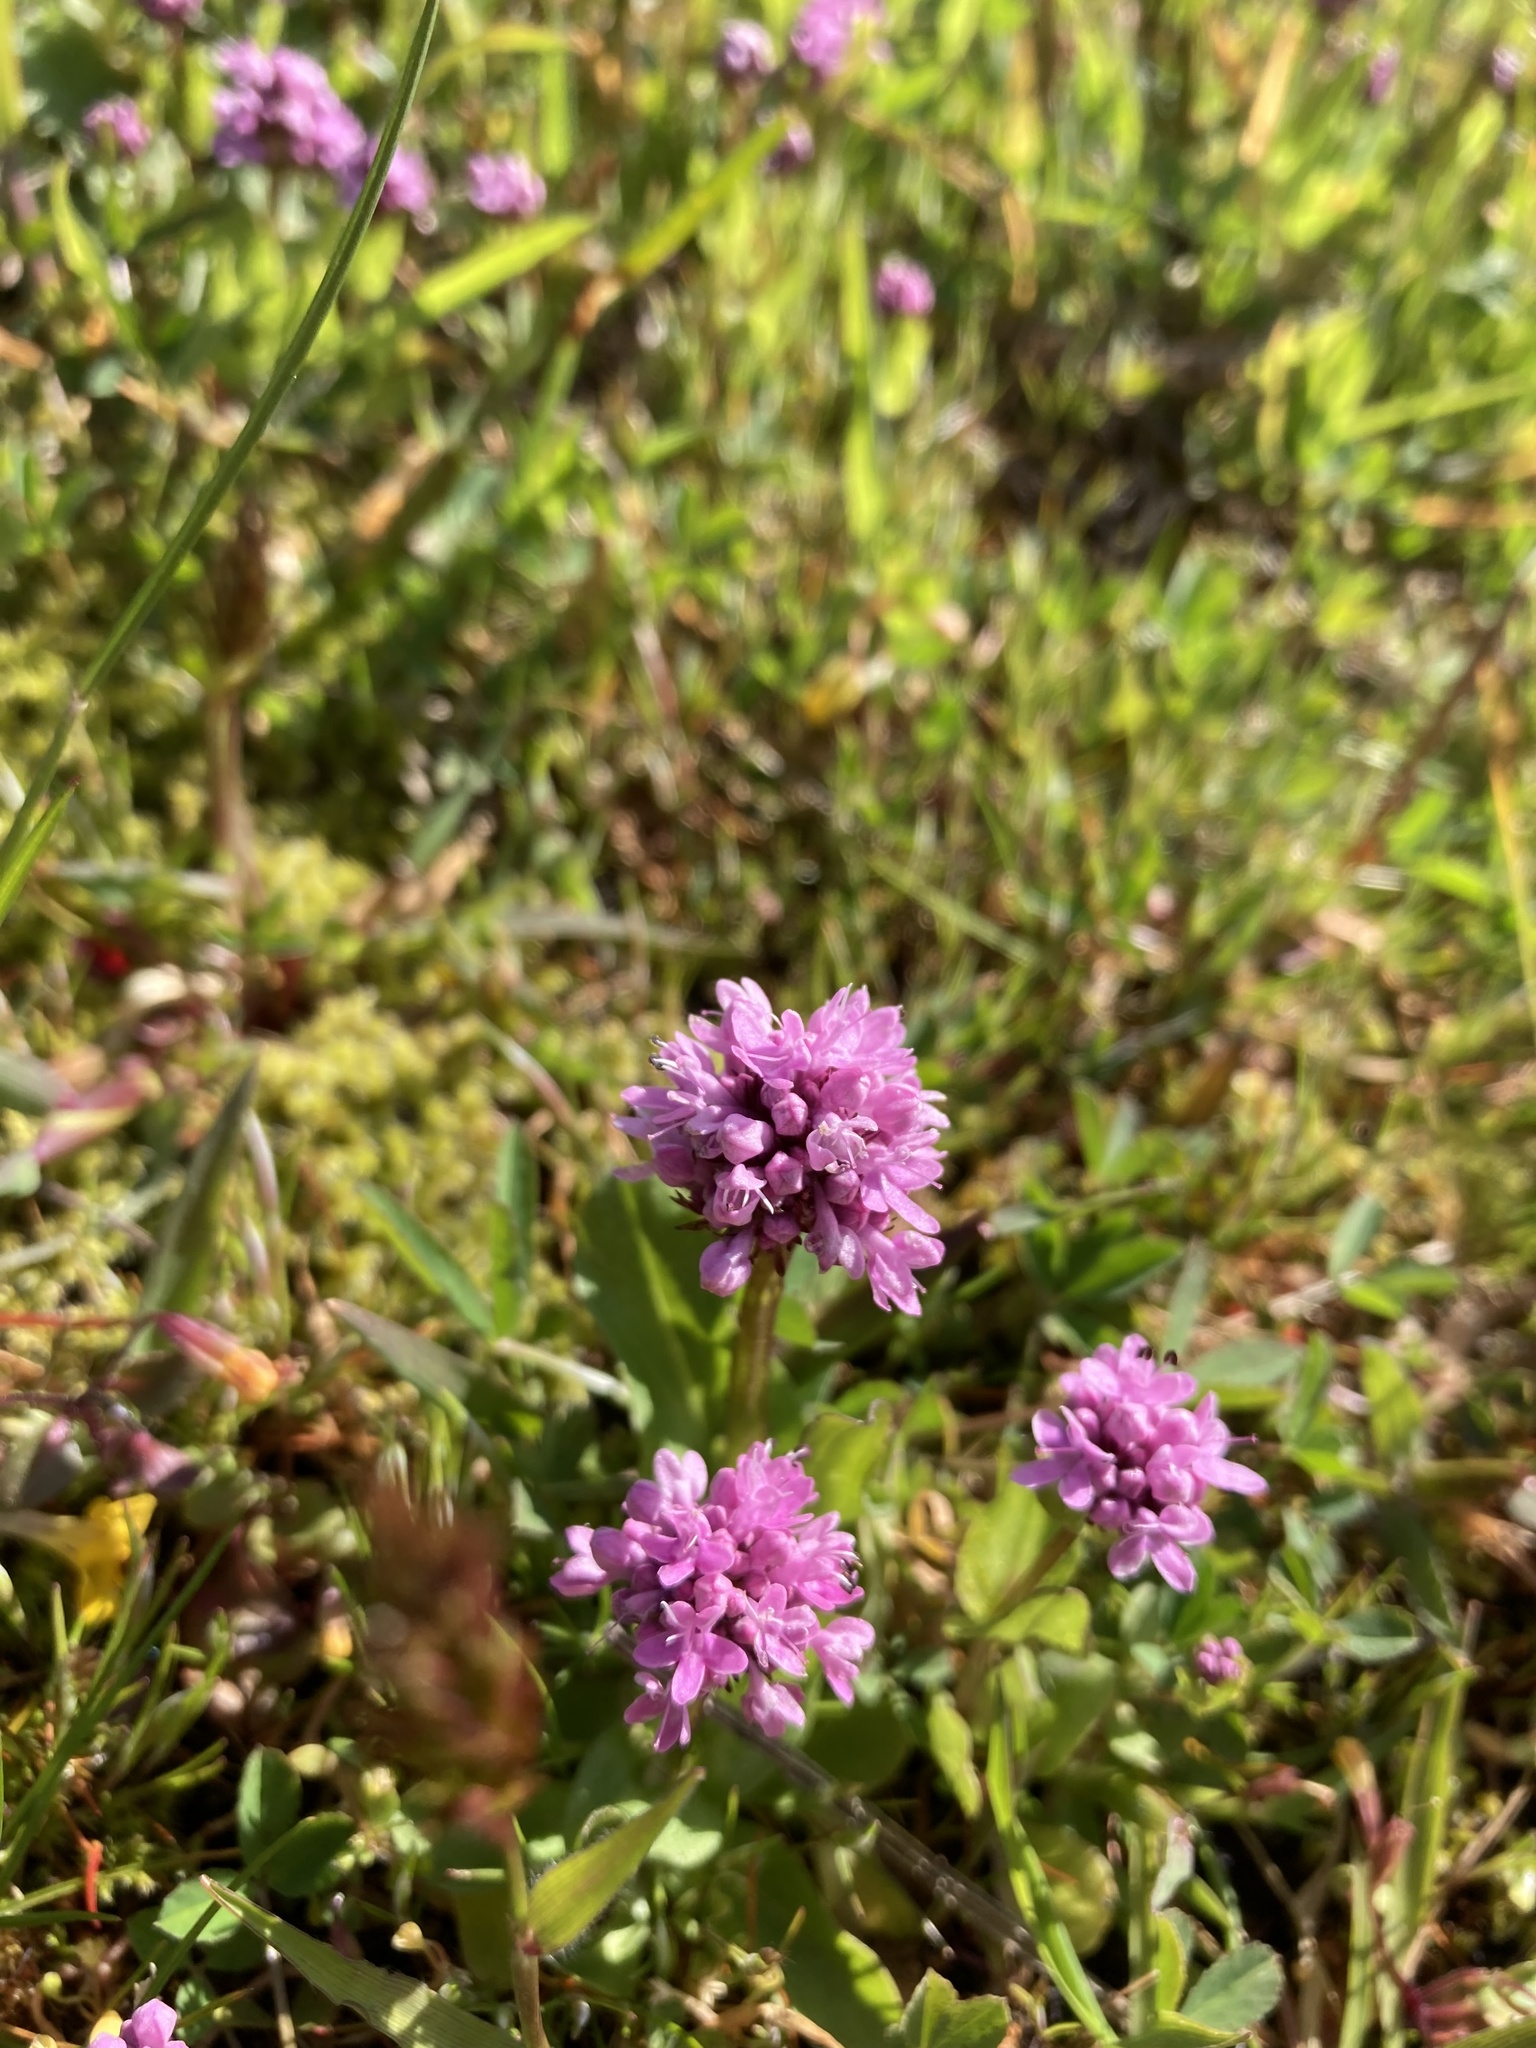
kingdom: Plantae
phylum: Tracheophyta
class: Magnoliopsida
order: Dipsacales
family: Caprifoliaceae
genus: Plectritis
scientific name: Plectritis congesta
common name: Pink plectritis
